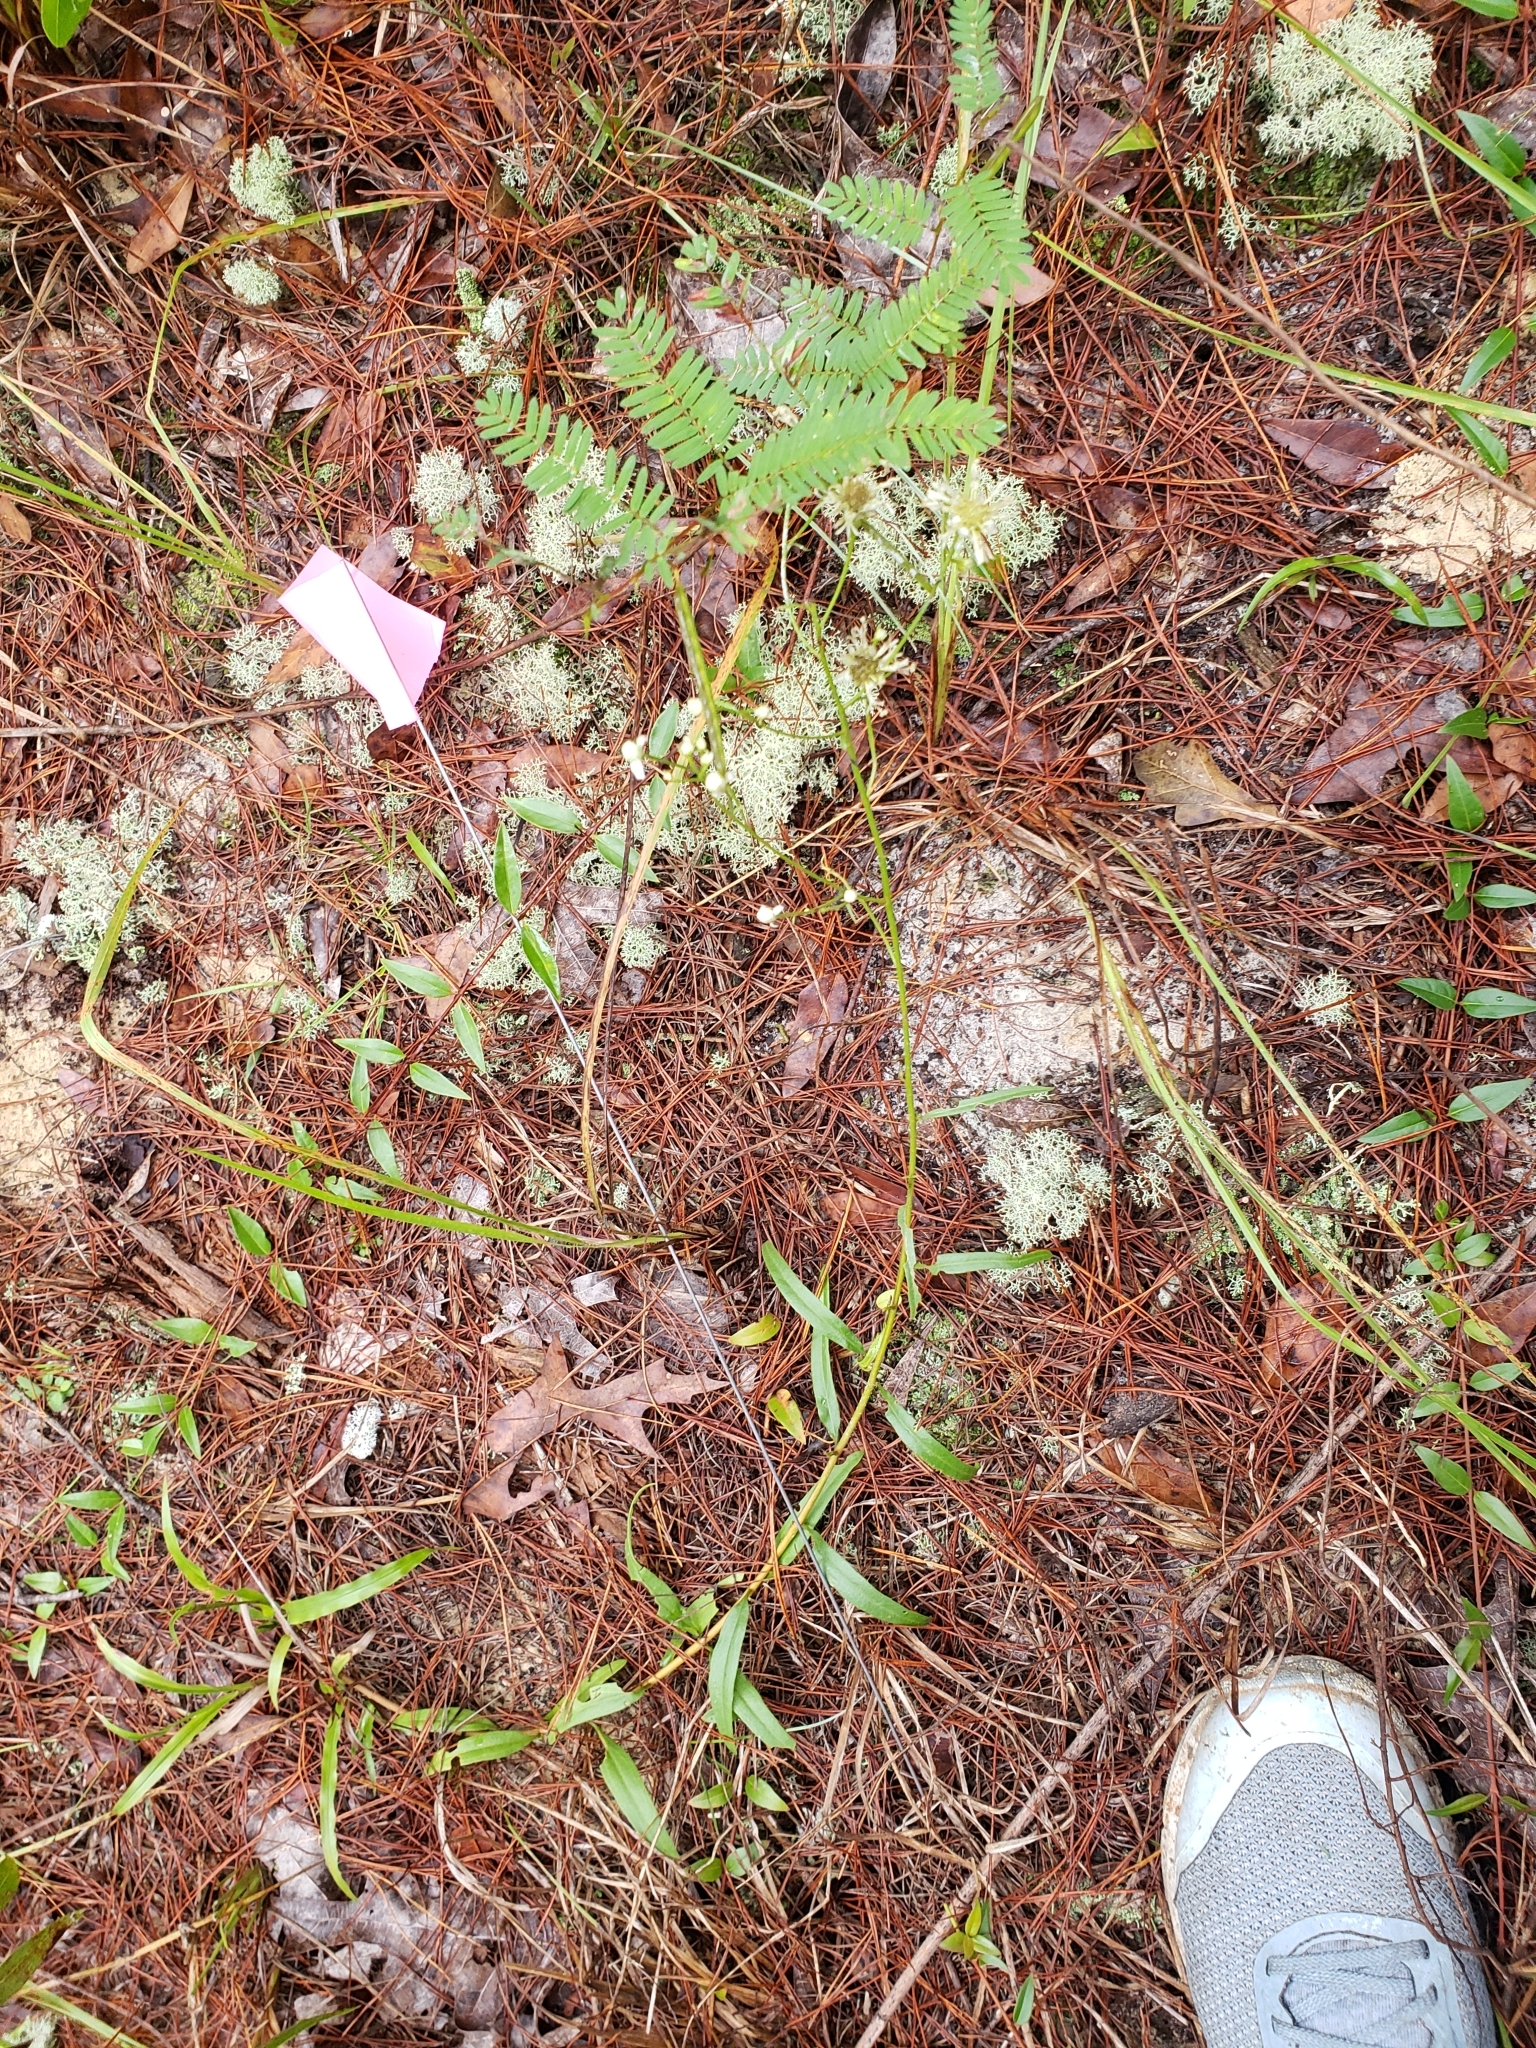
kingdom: Plantae
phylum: Tracheophyta
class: Magnoliopsida
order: Asterales
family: Asteraceae
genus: Palafoxia
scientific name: Palafoxia integrifolia
